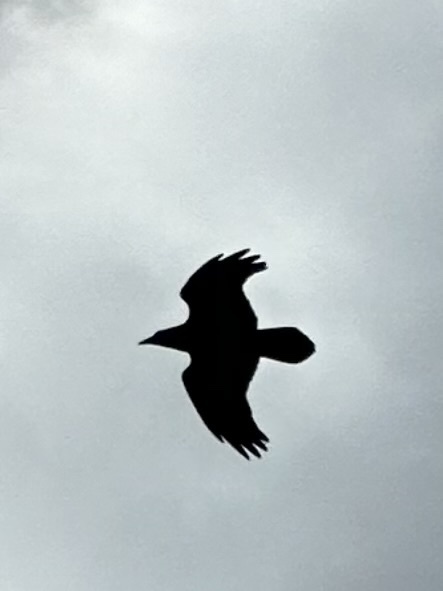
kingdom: Animalia
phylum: Chordata
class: Aves
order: Passeriformes
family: Corvidae
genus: Corvus
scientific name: Corvus corax
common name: Common raven
